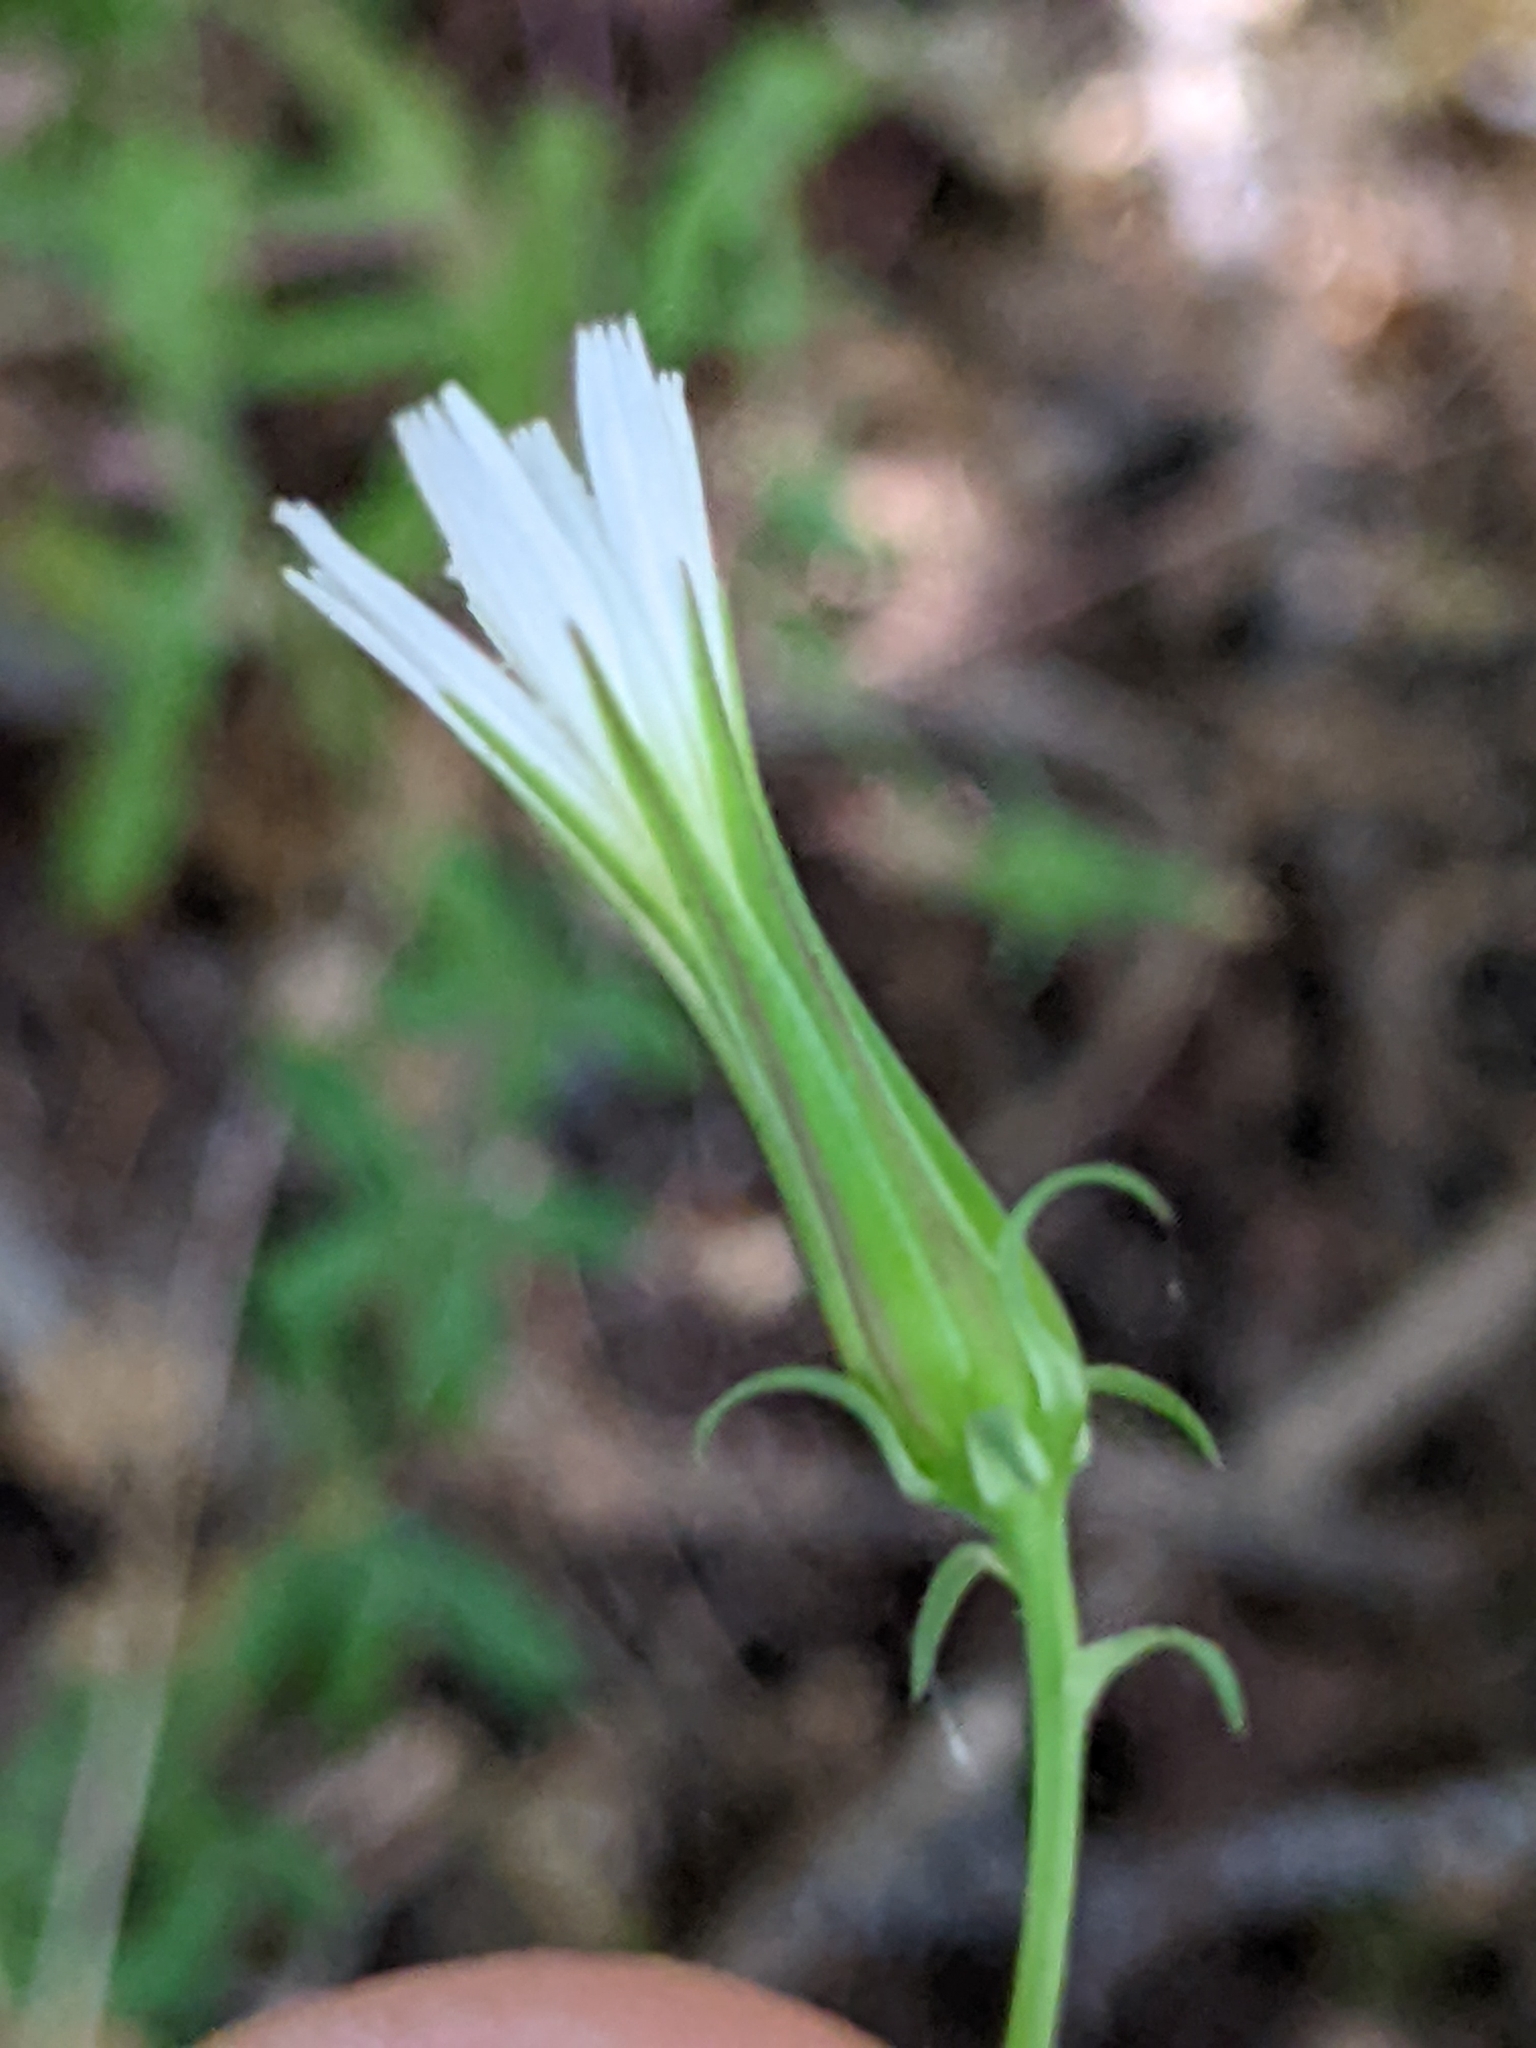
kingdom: Plantae
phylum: Tracheophyta
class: Magnoliopsida
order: Asterales
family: Asteraceae
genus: Rafinesquia
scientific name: Rafinesquia californica
